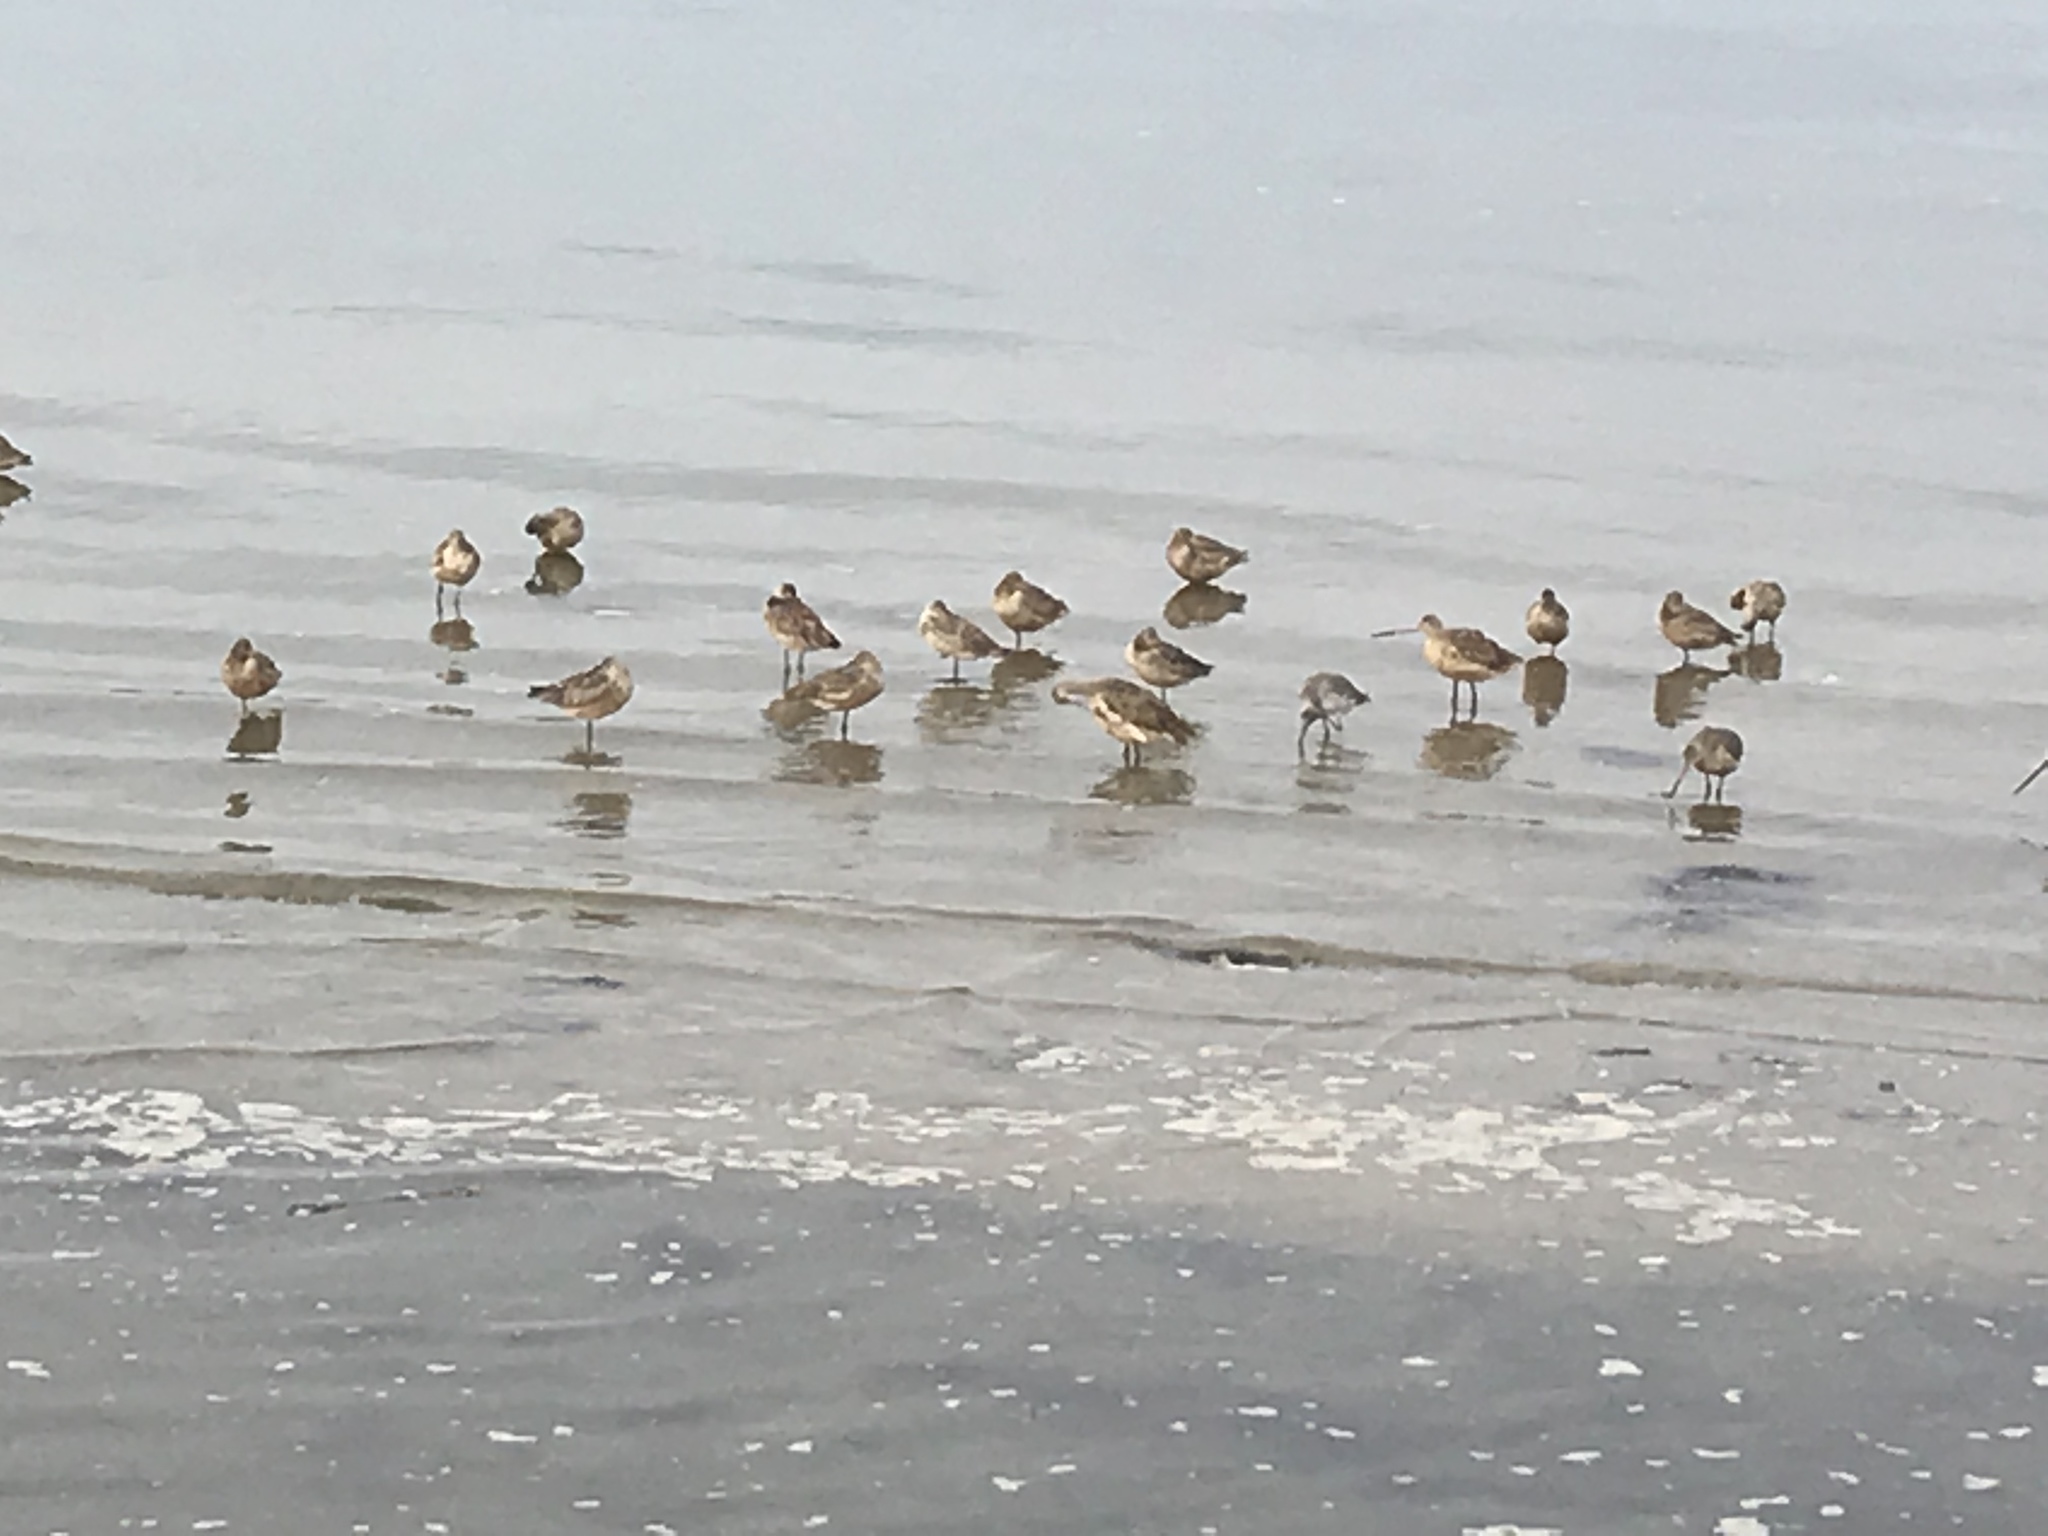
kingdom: Animalia
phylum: Chordata
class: Aves
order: Charadriiformes
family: Scolopacidae
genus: Limosa
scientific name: Limosa fedoa
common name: Marbled godwit
